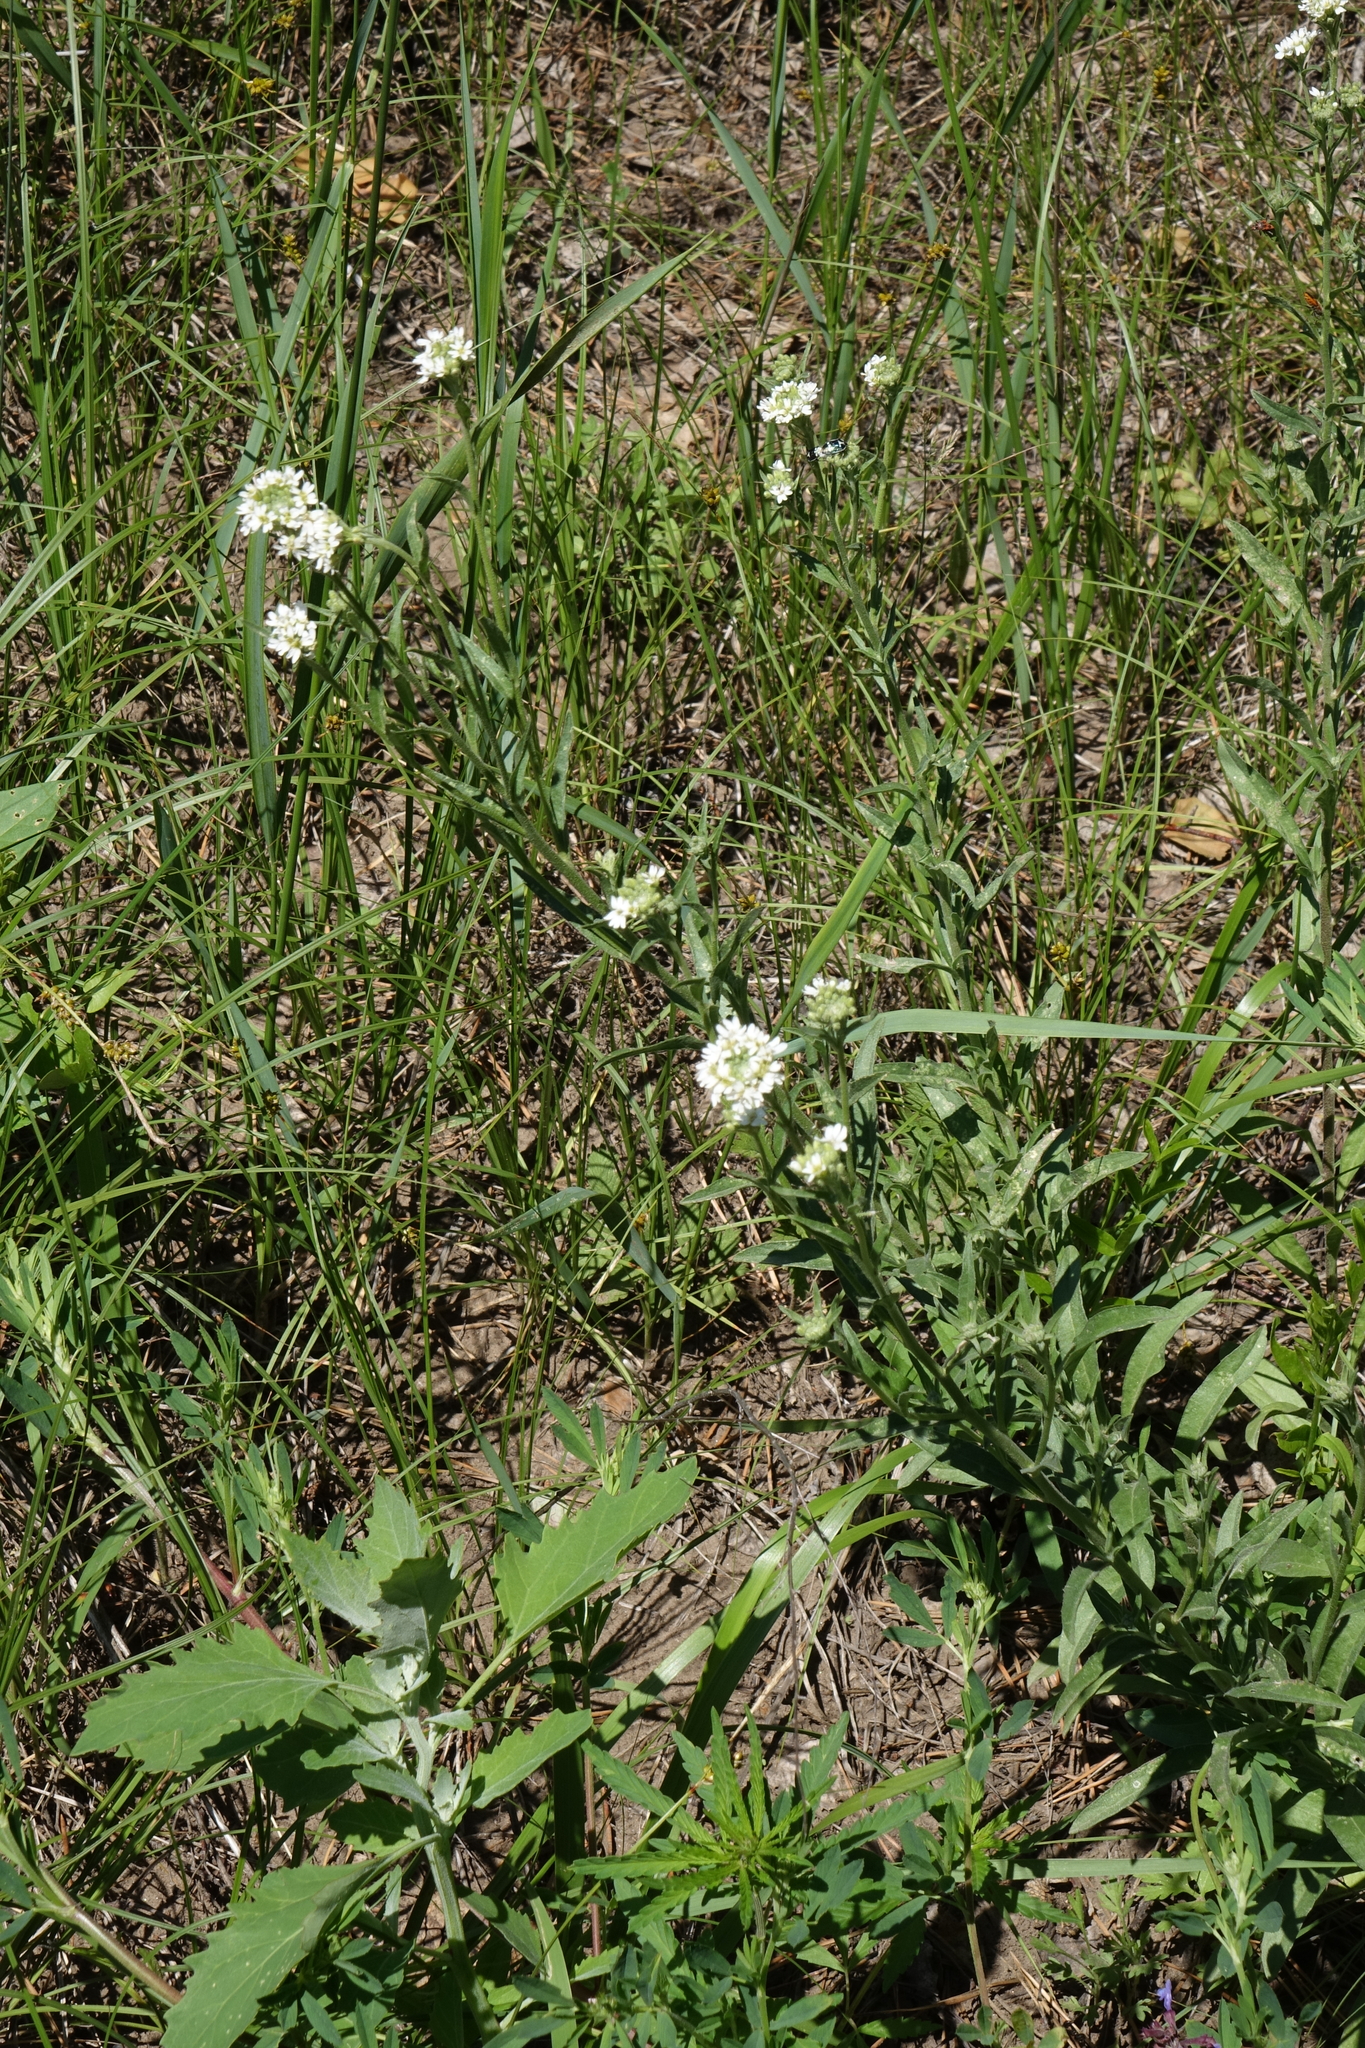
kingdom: Plantae
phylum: Tracheophyta
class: Magnoliopsida
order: Brassicales
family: Brassicaceae
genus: Berteroa
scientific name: Berteroa incana
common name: Hoary alison
